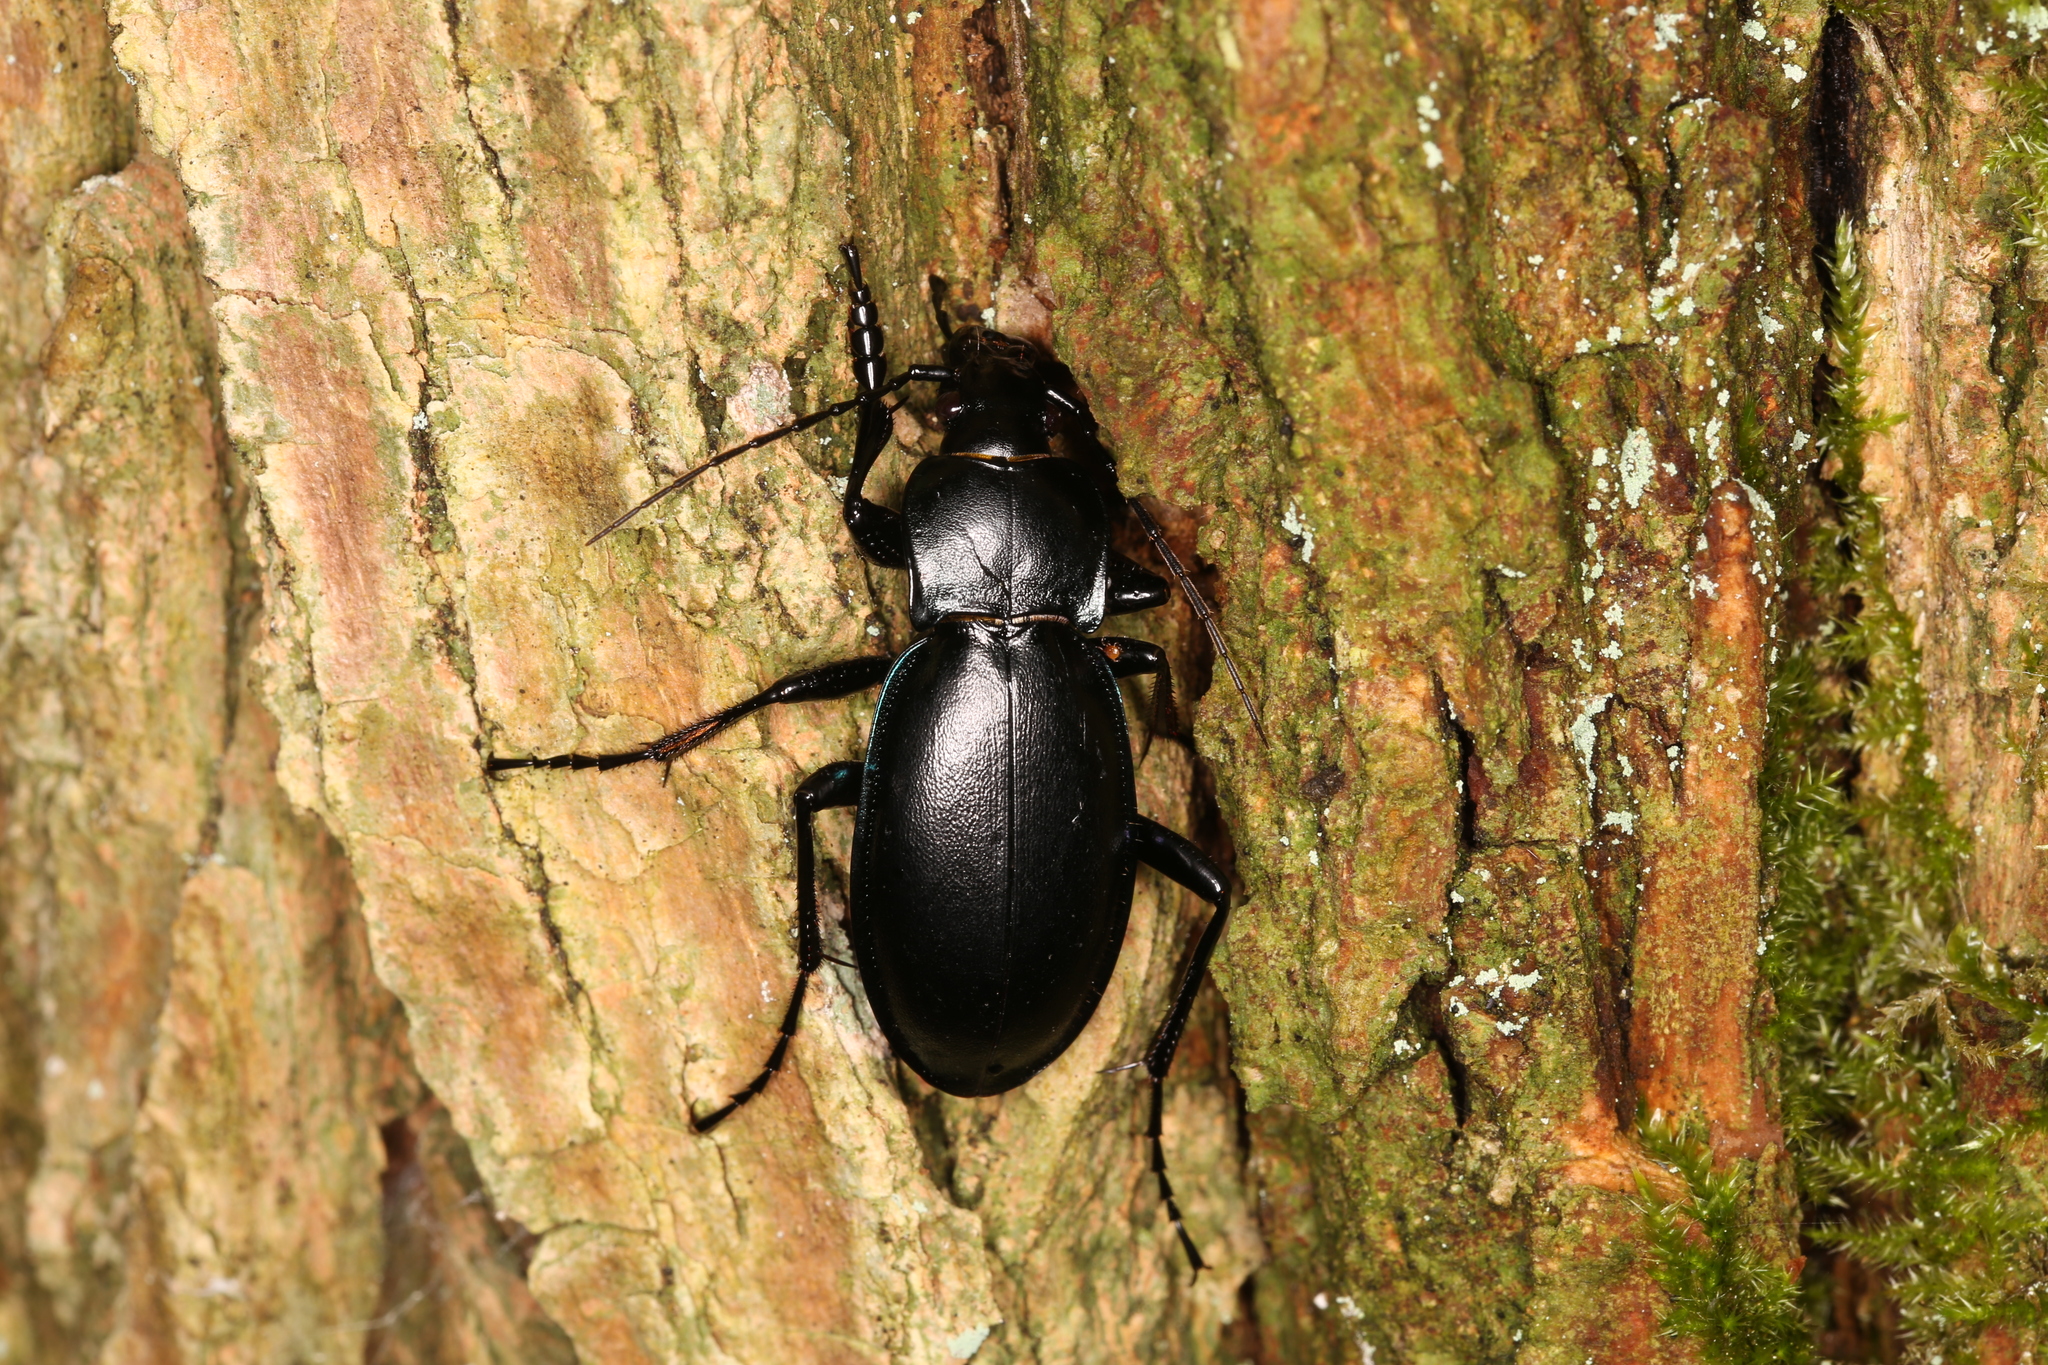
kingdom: Animalia
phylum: Arthropoda
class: Insecta
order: Coleoptera
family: Carabidae
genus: Carabus
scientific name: Carabus germarii
